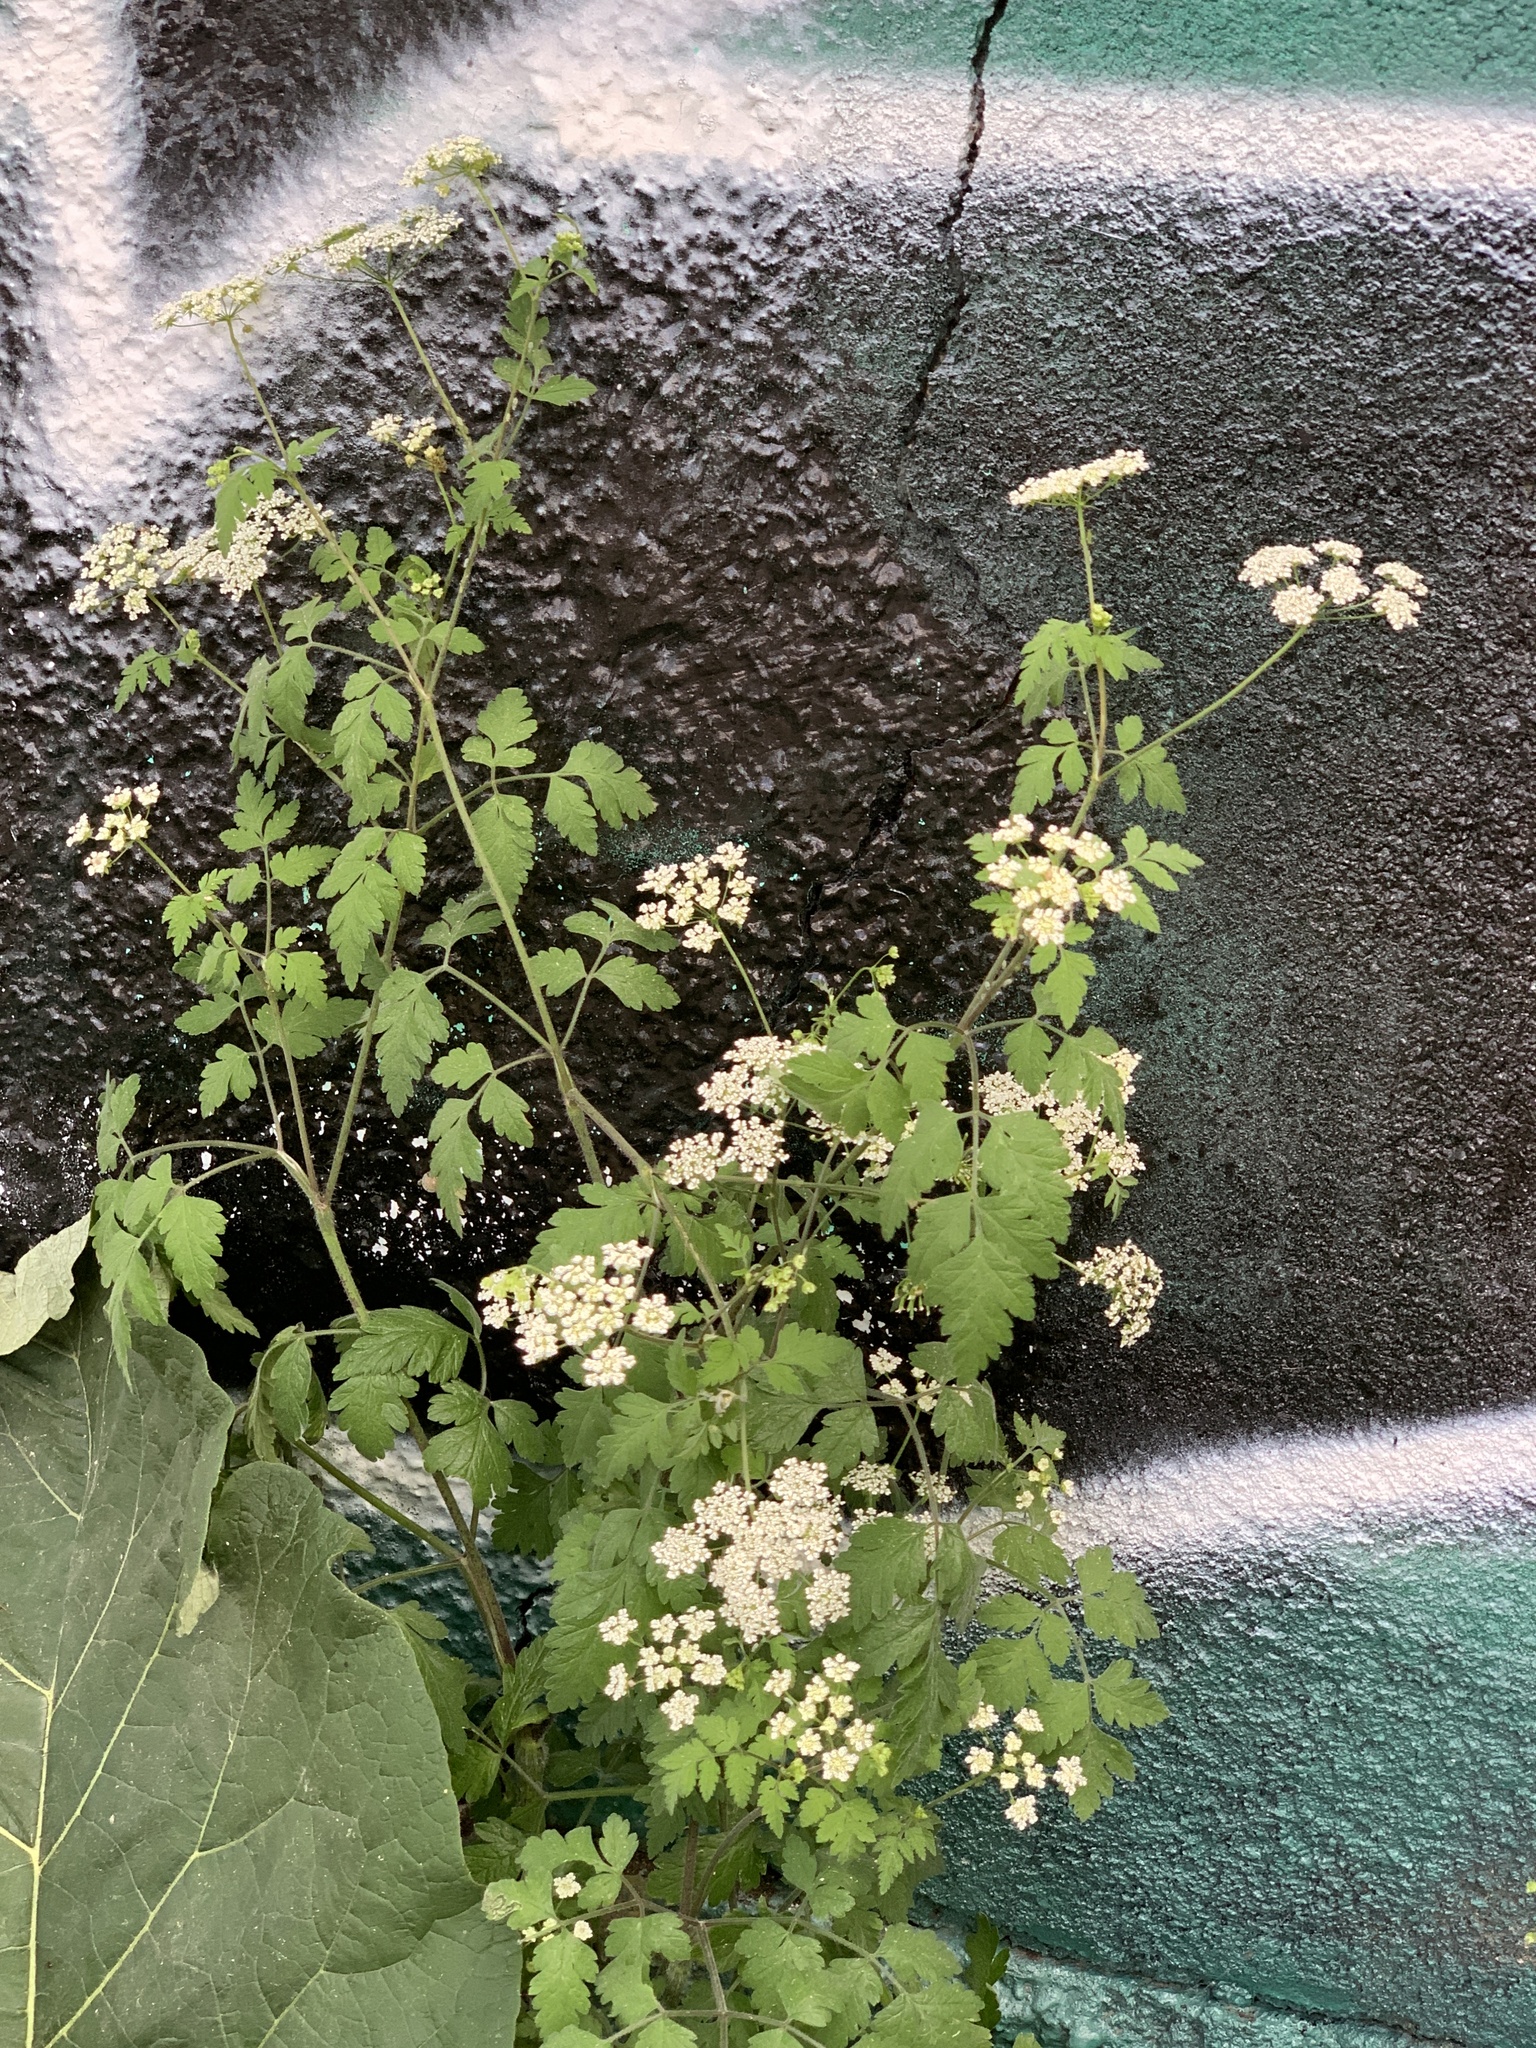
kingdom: Plantae
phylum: Tracheophyta
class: Magnoliopsida
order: Apiales
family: Apiaceae
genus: Chaerophyllum
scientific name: Chaerophyllum temulum
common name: Rough chervil
